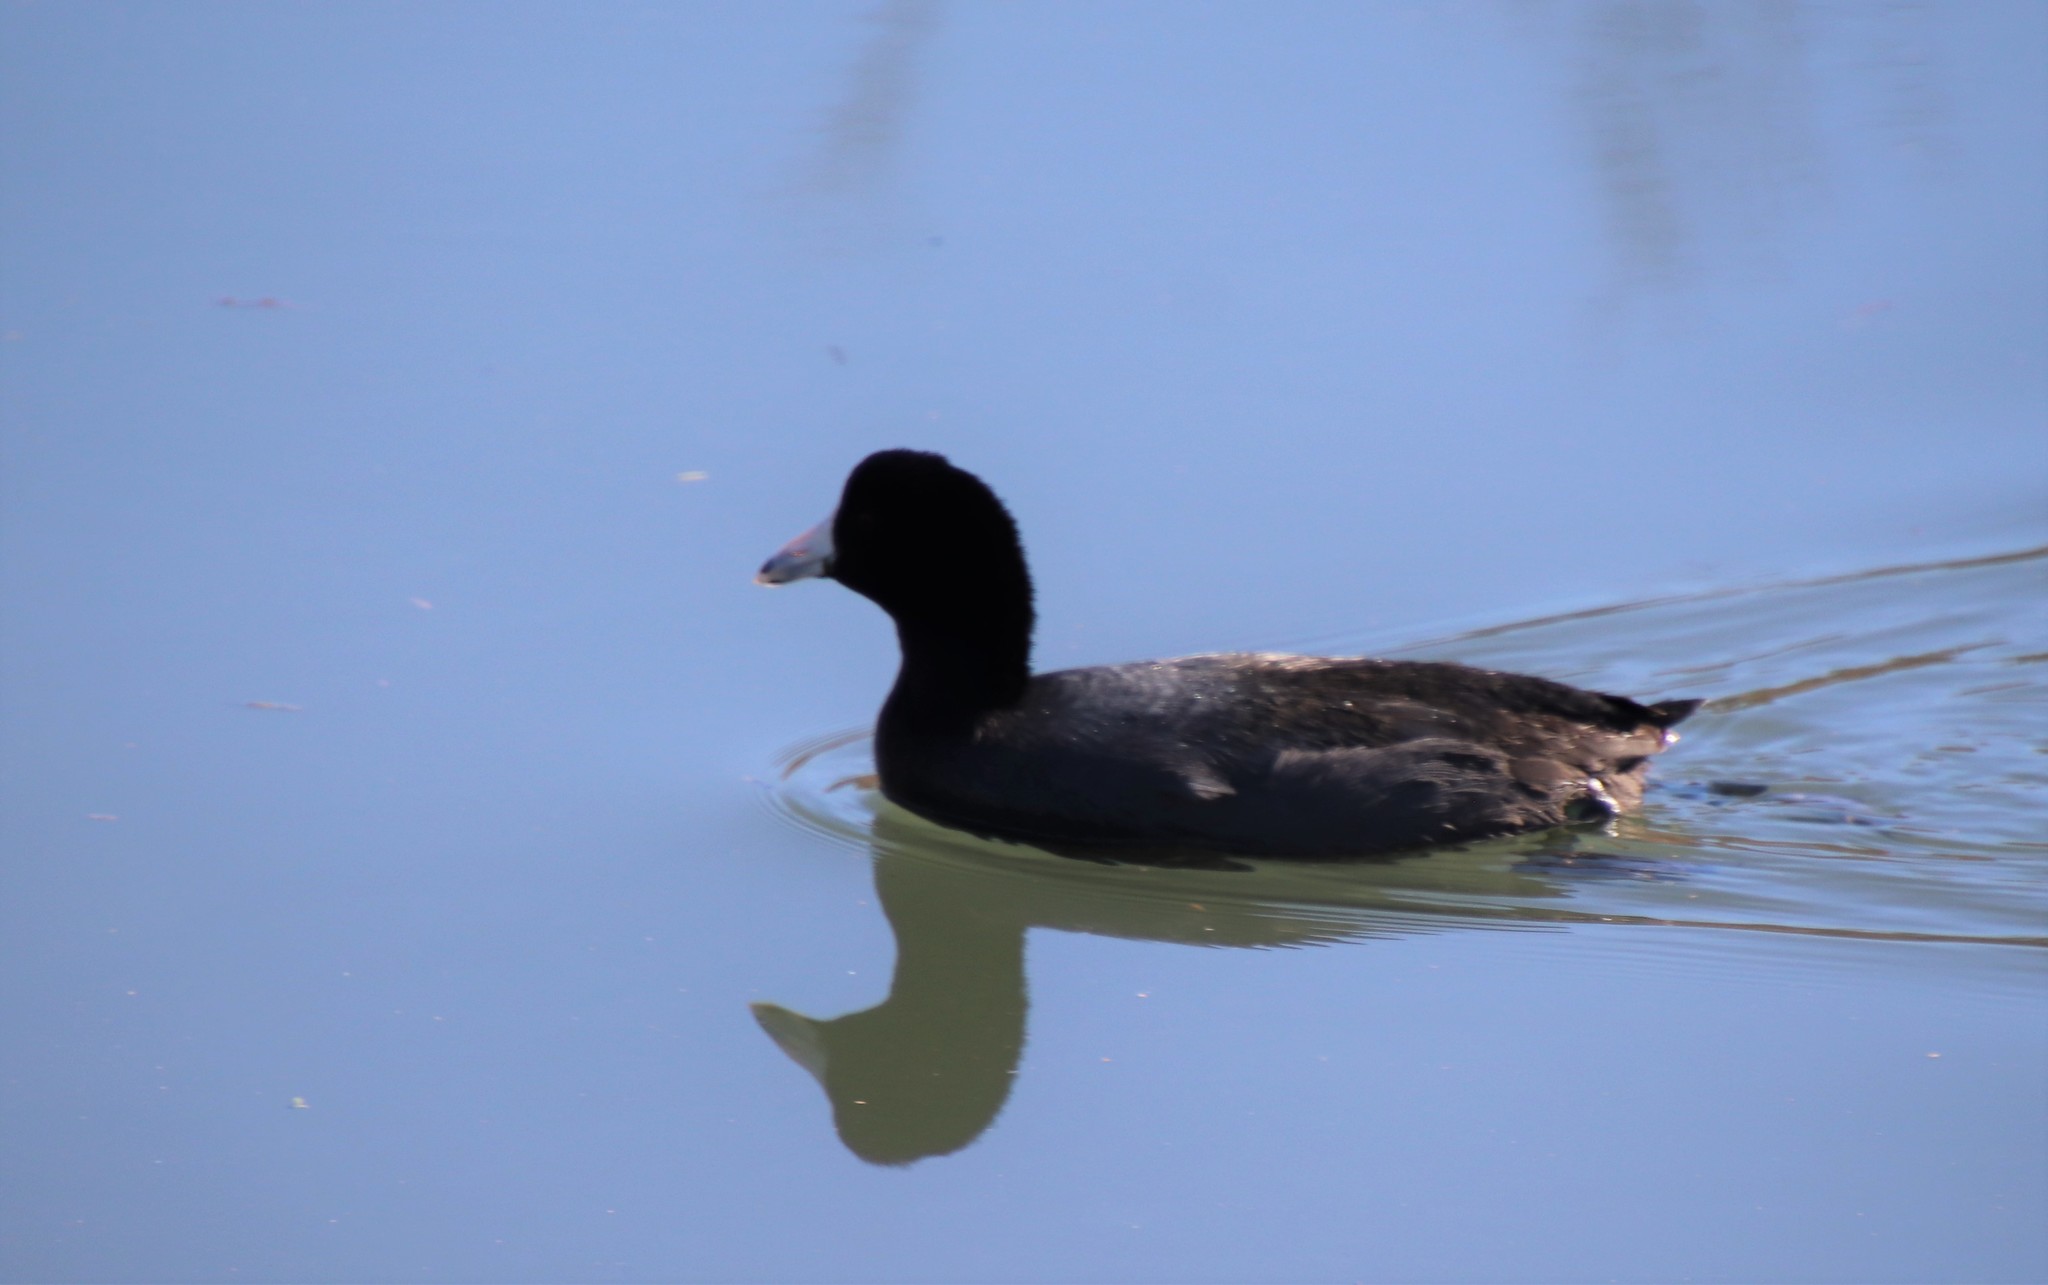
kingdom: Animalia
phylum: Chordata
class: Aves
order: Gruiformes
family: Rallidae
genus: Fulica
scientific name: Fulica americana
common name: American coot
